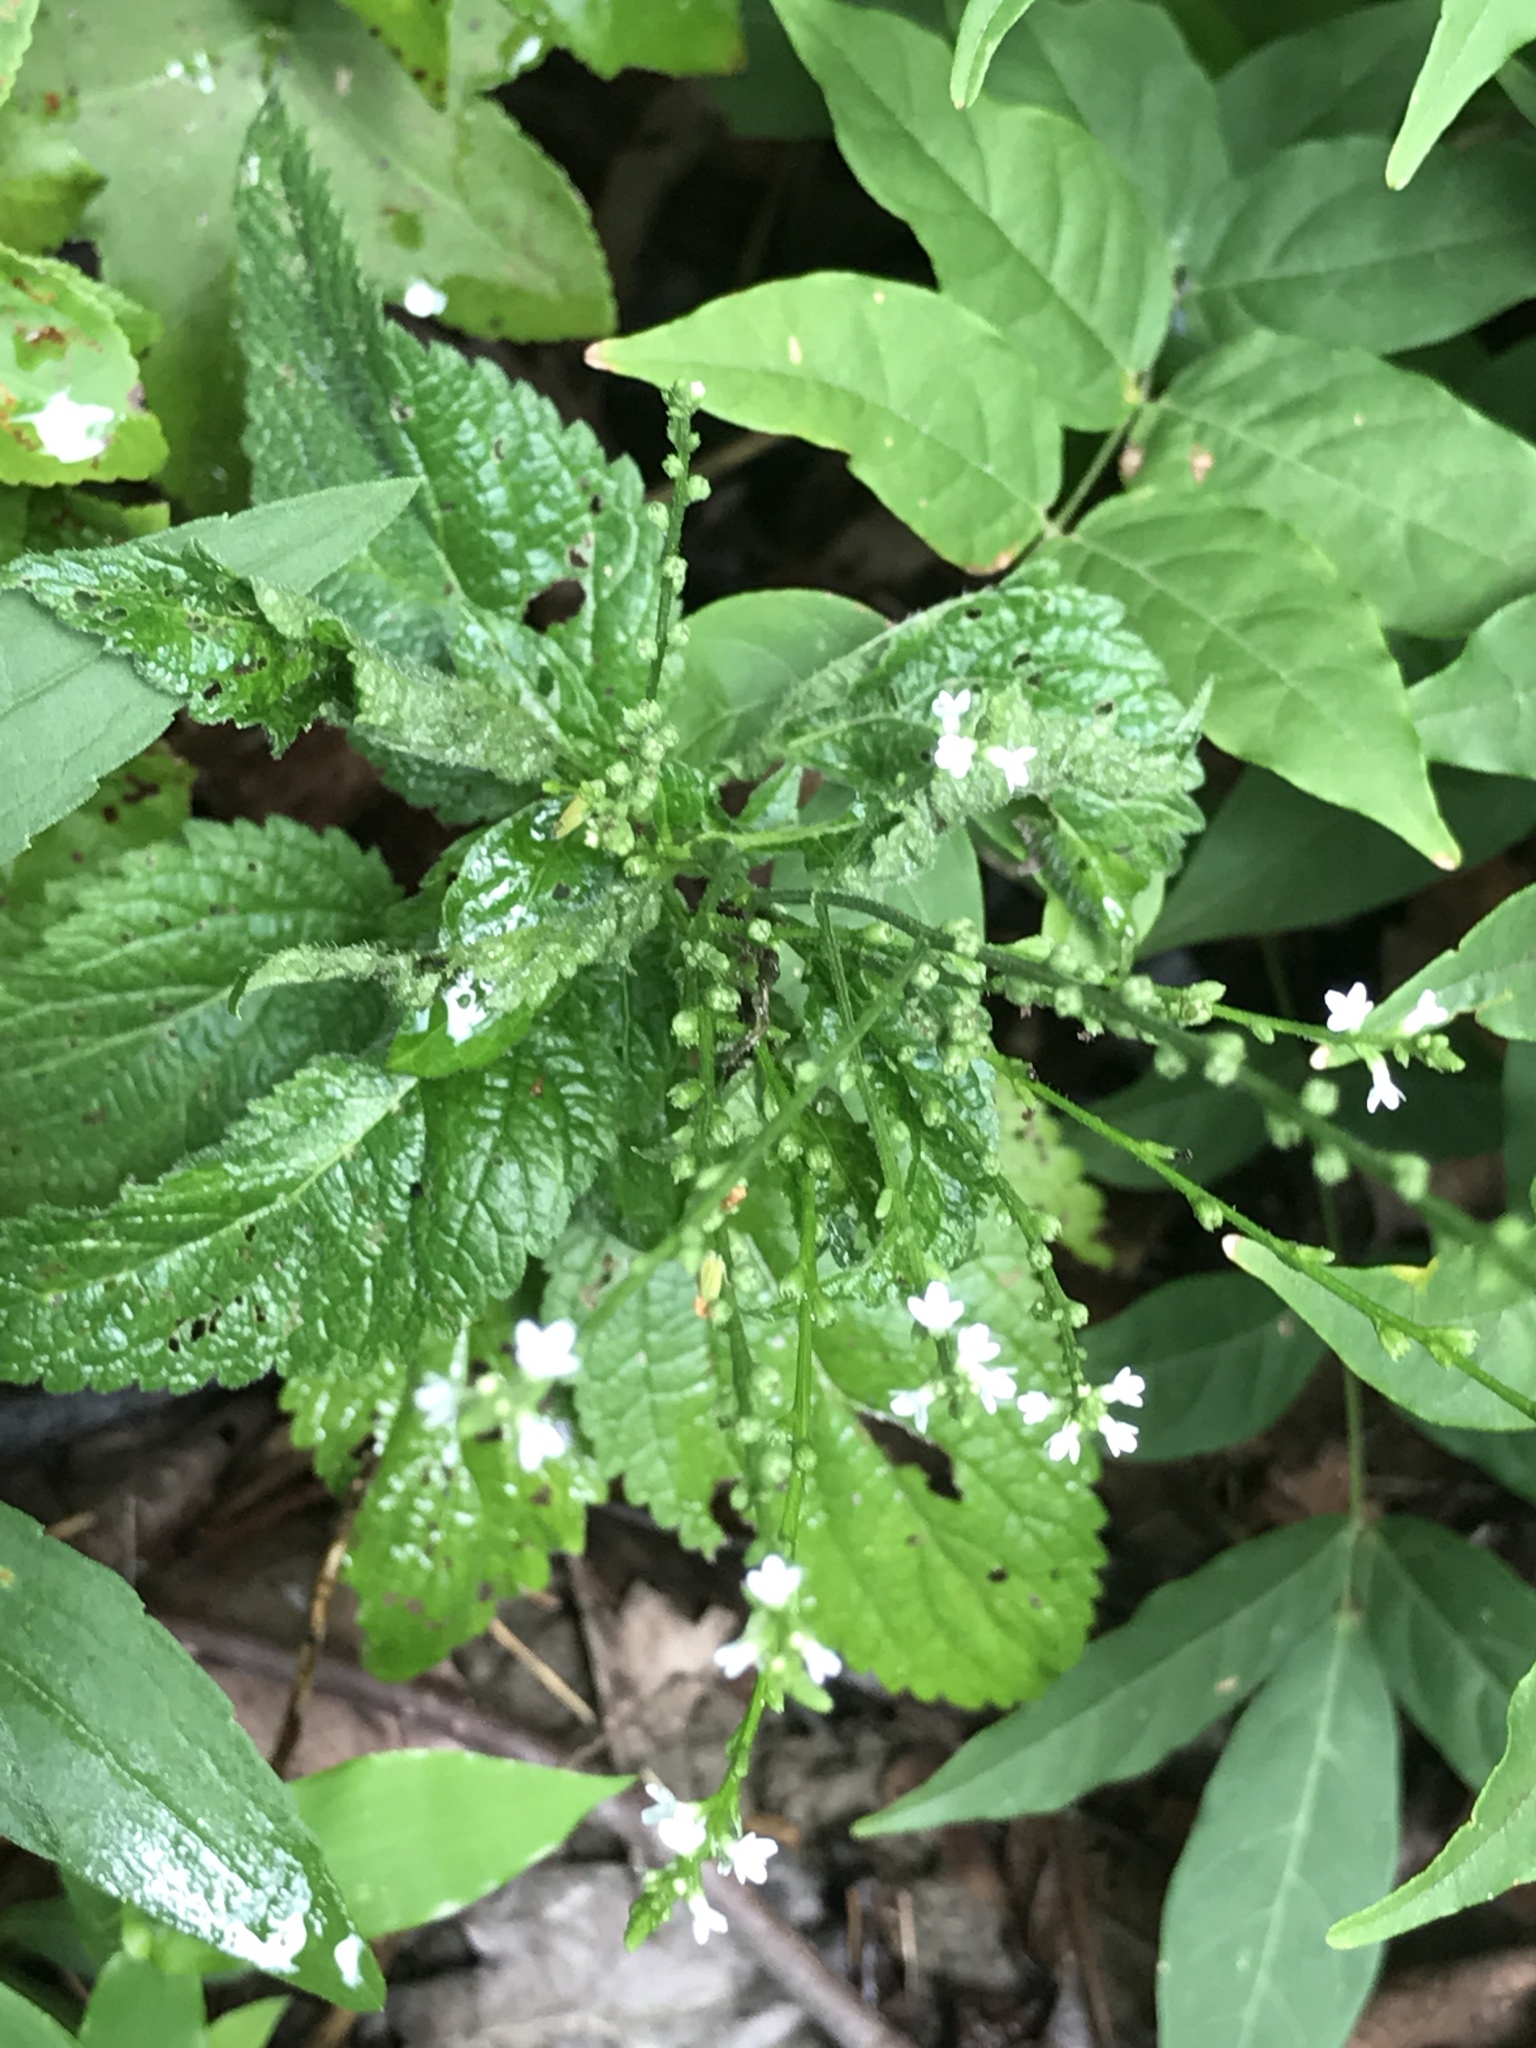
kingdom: Plantae
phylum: Tracheophyta
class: Magnoliopsida
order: Lamiales
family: Verbenaceae
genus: Verbena
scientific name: Verbena urticifolia
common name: Nettle-leaved vervain
